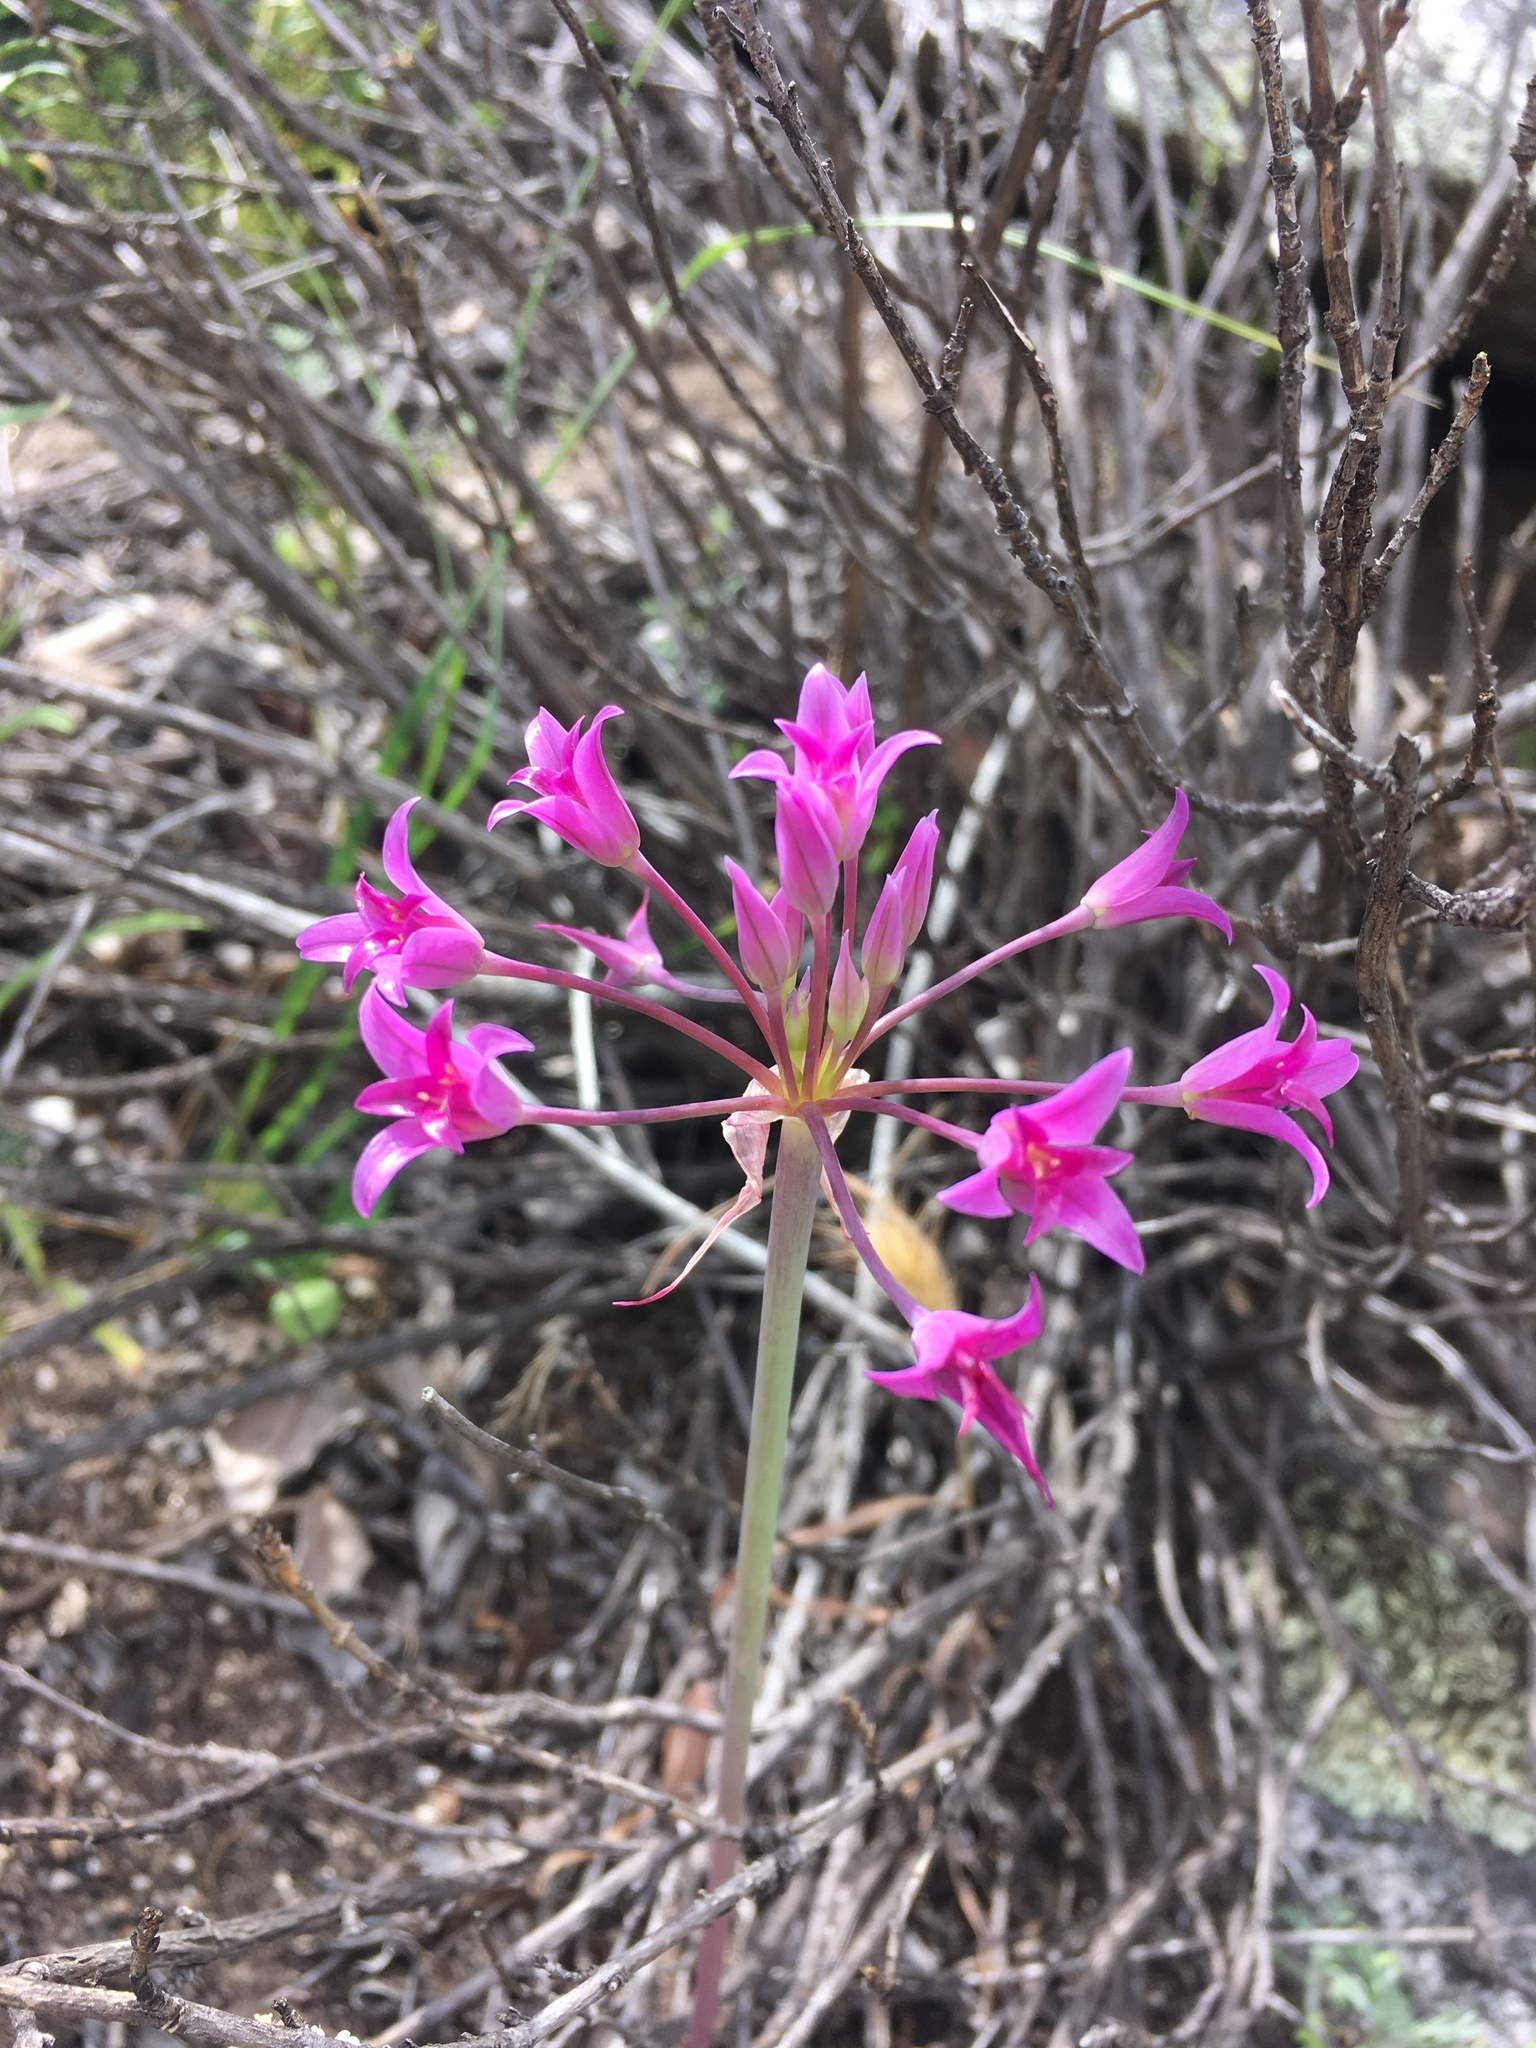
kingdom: Plantae
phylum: Tracheophyta
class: Liliopsida
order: Asparagales
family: Amaryllidaceae
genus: Allium
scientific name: Allium peninsulare
